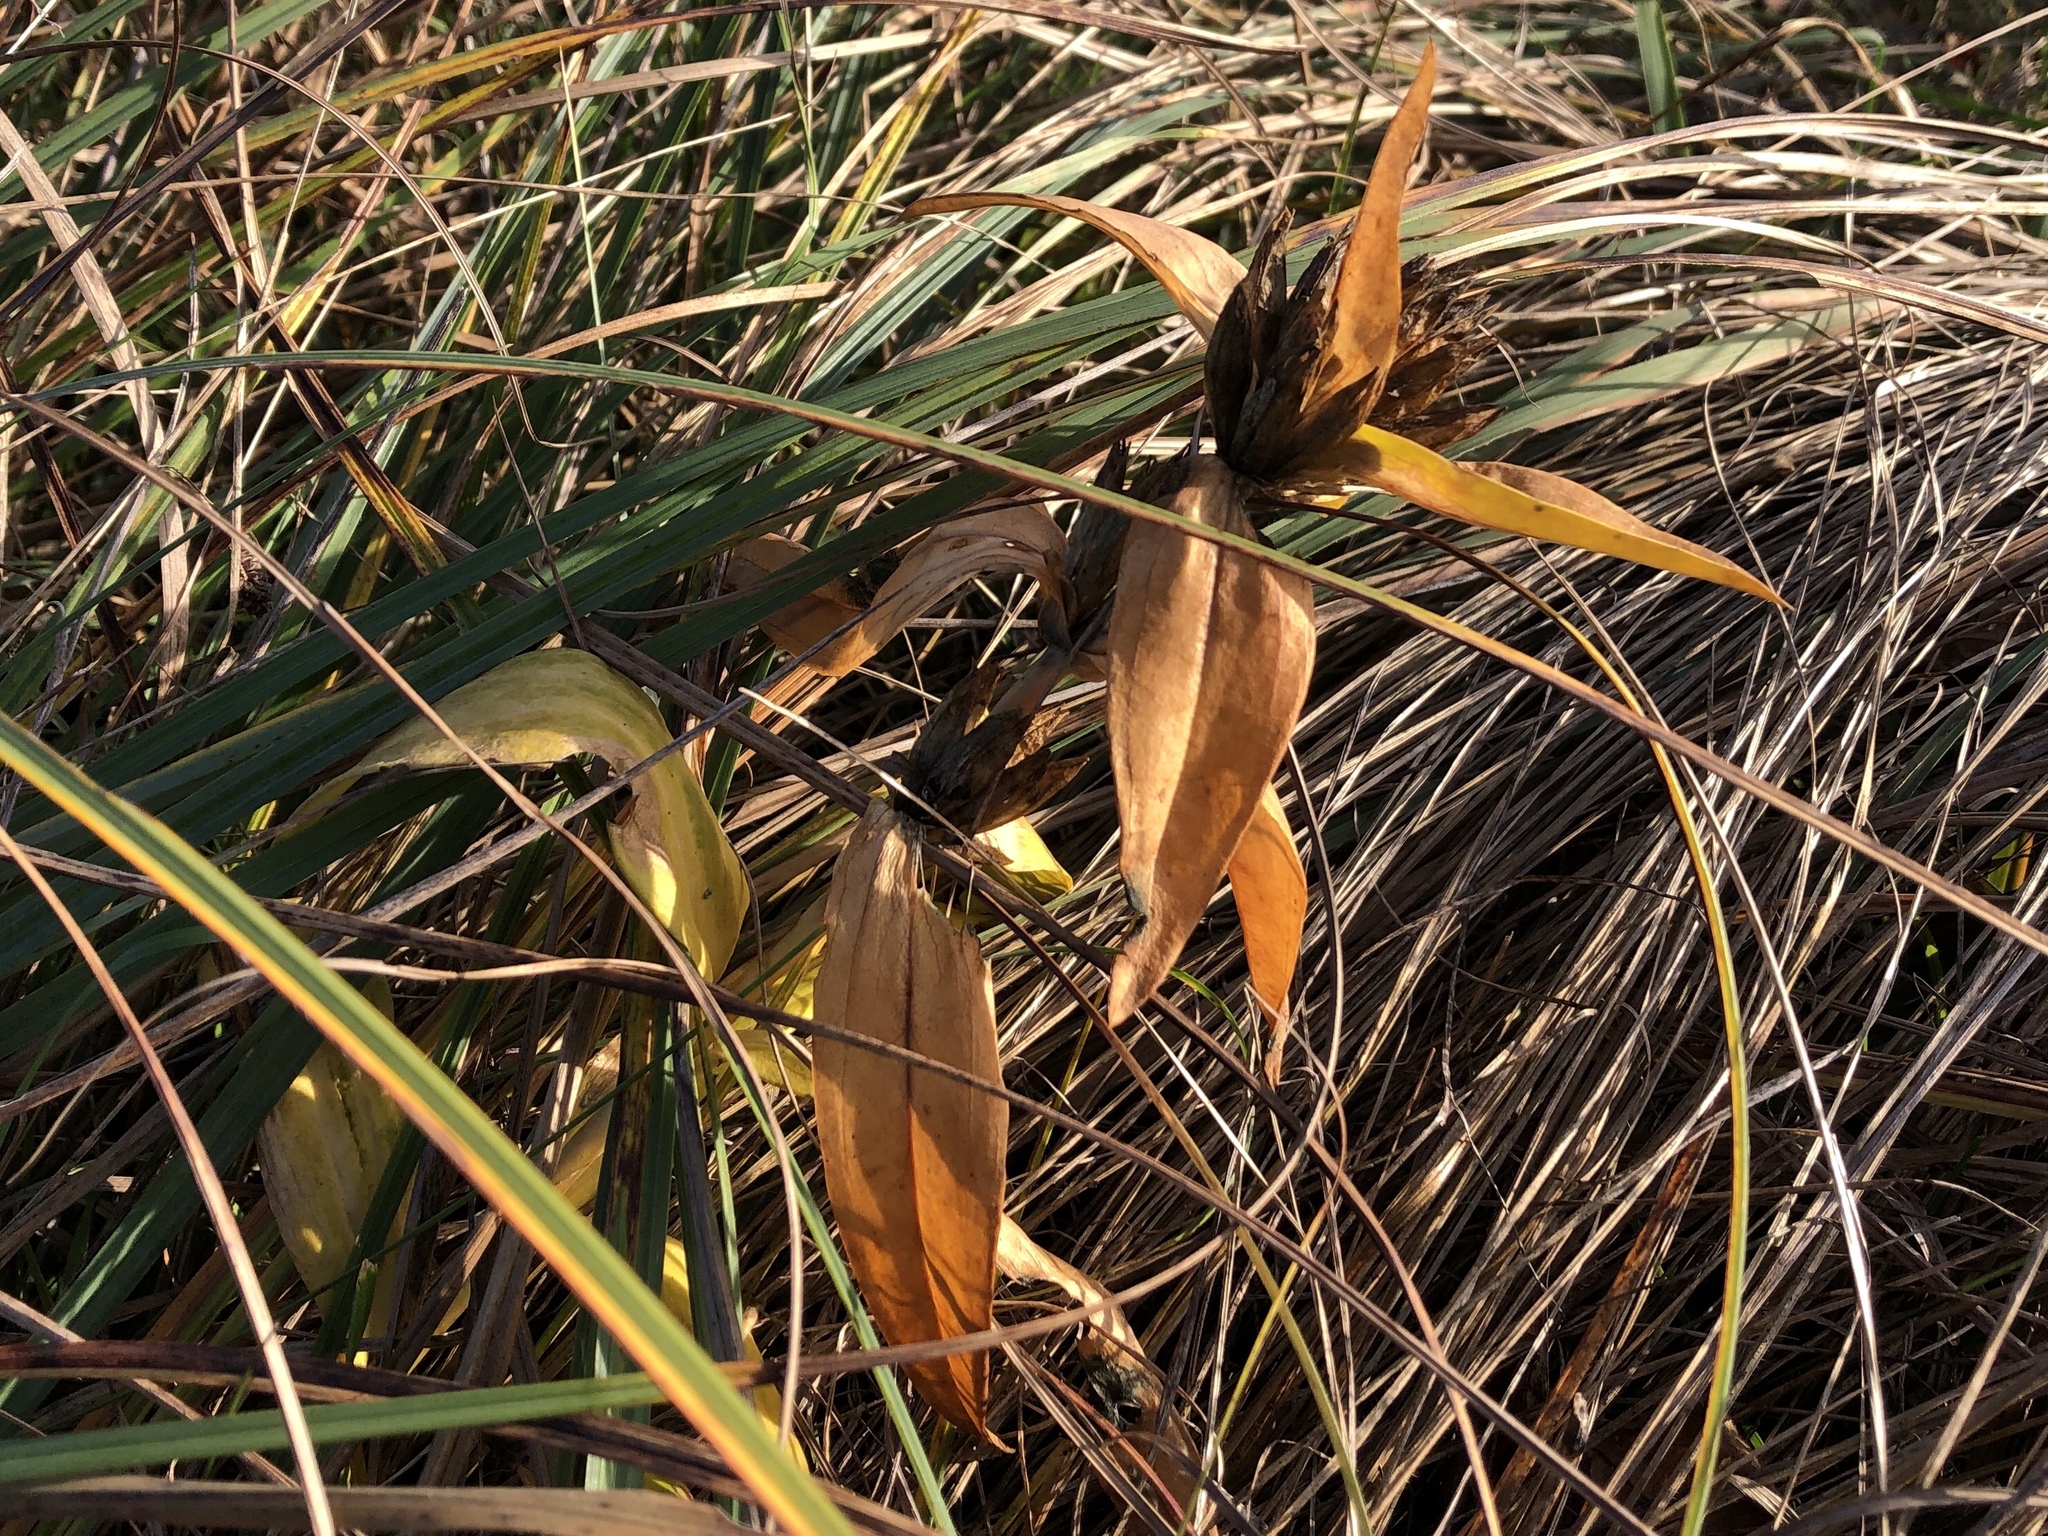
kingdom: Plantae
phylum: Tracheophyta
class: Magnoliopsida
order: Gentianales
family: Gentianaceae
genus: Gentiana
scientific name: Gentiana cruciata
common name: Cross gentian
